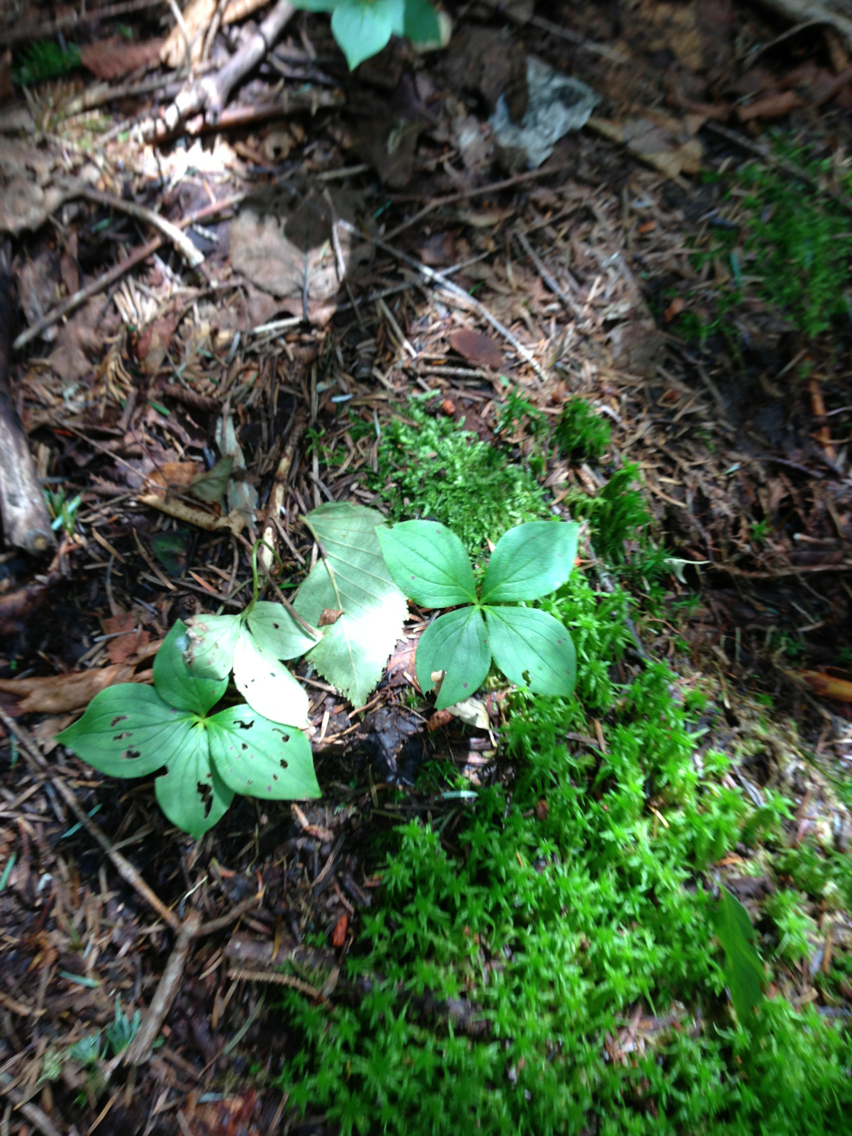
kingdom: Plantae
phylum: Tracheophyta
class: Magnoliopsida
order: Cornales
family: Cornaceae
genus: Cornus
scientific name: Cornus canadensis
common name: Creeping dogwood
